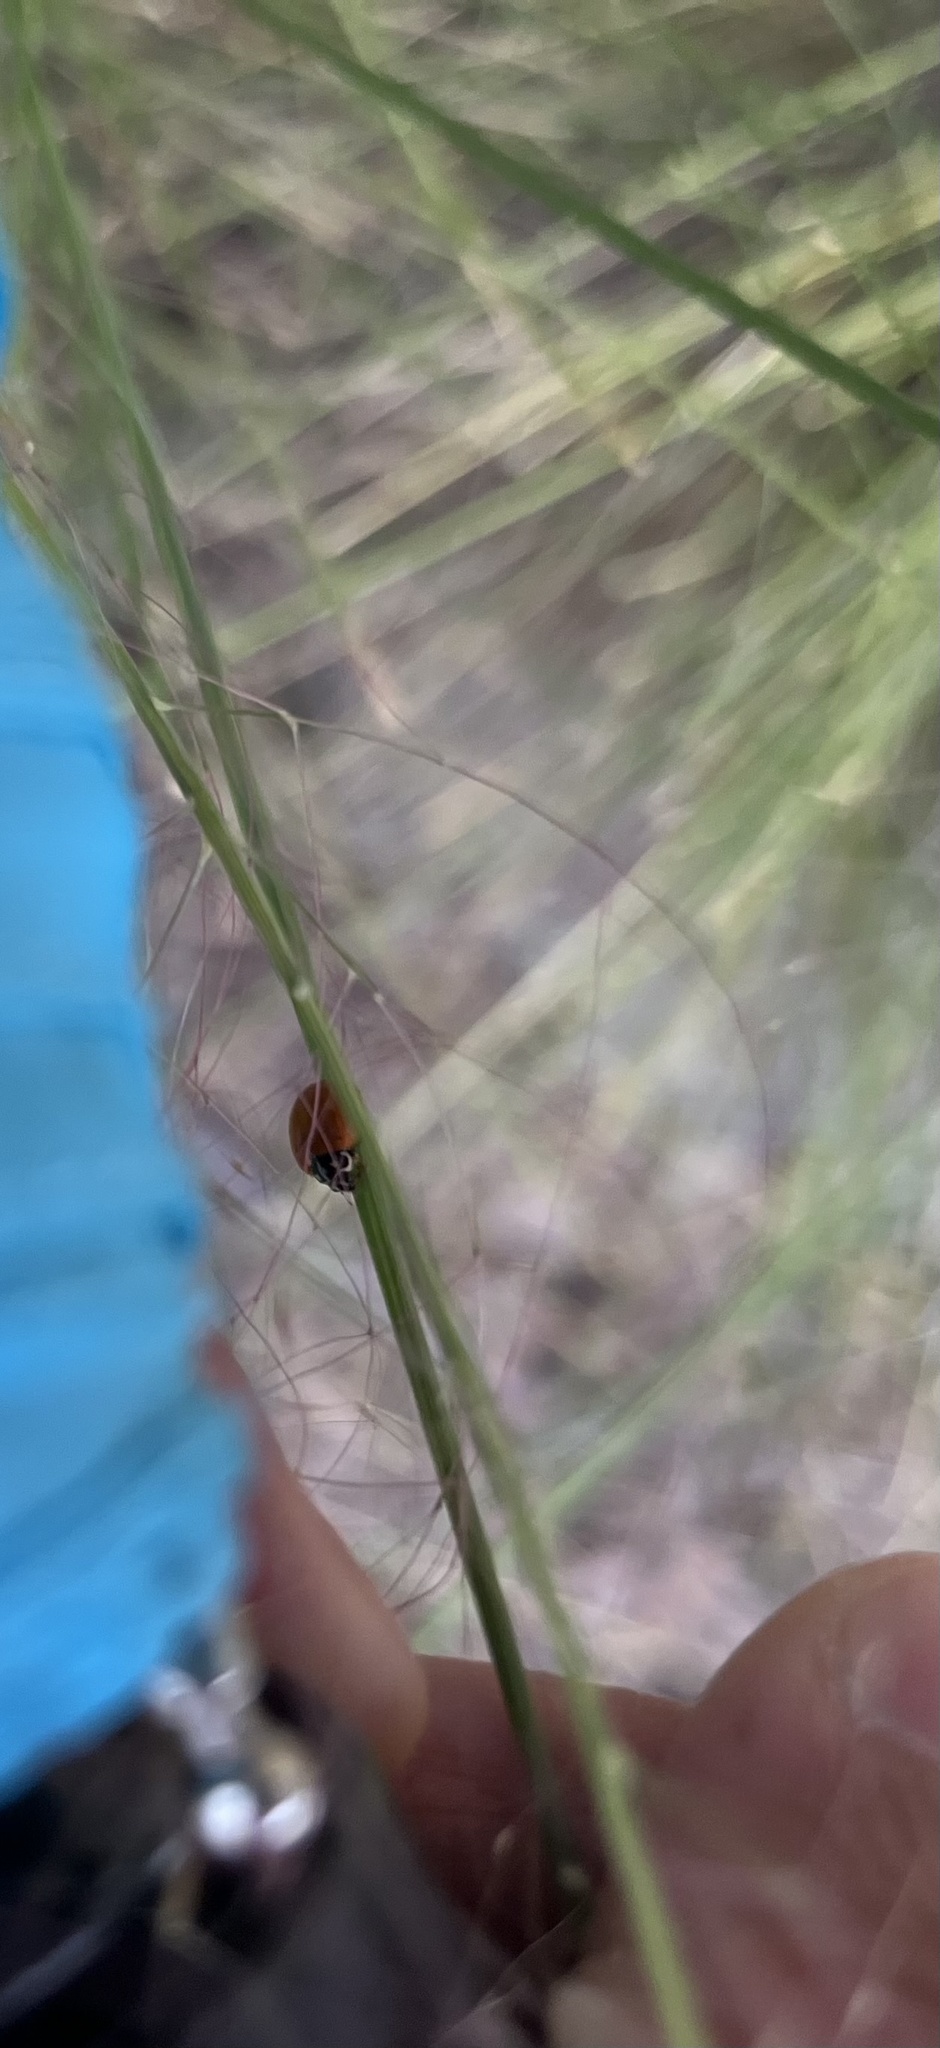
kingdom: Animalia
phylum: Arthropoda
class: Insecta
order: Coleoptera
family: Coccinellidae
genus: Cycloneda
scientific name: Cycloneda sanguinea
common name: Ladybird beetle
